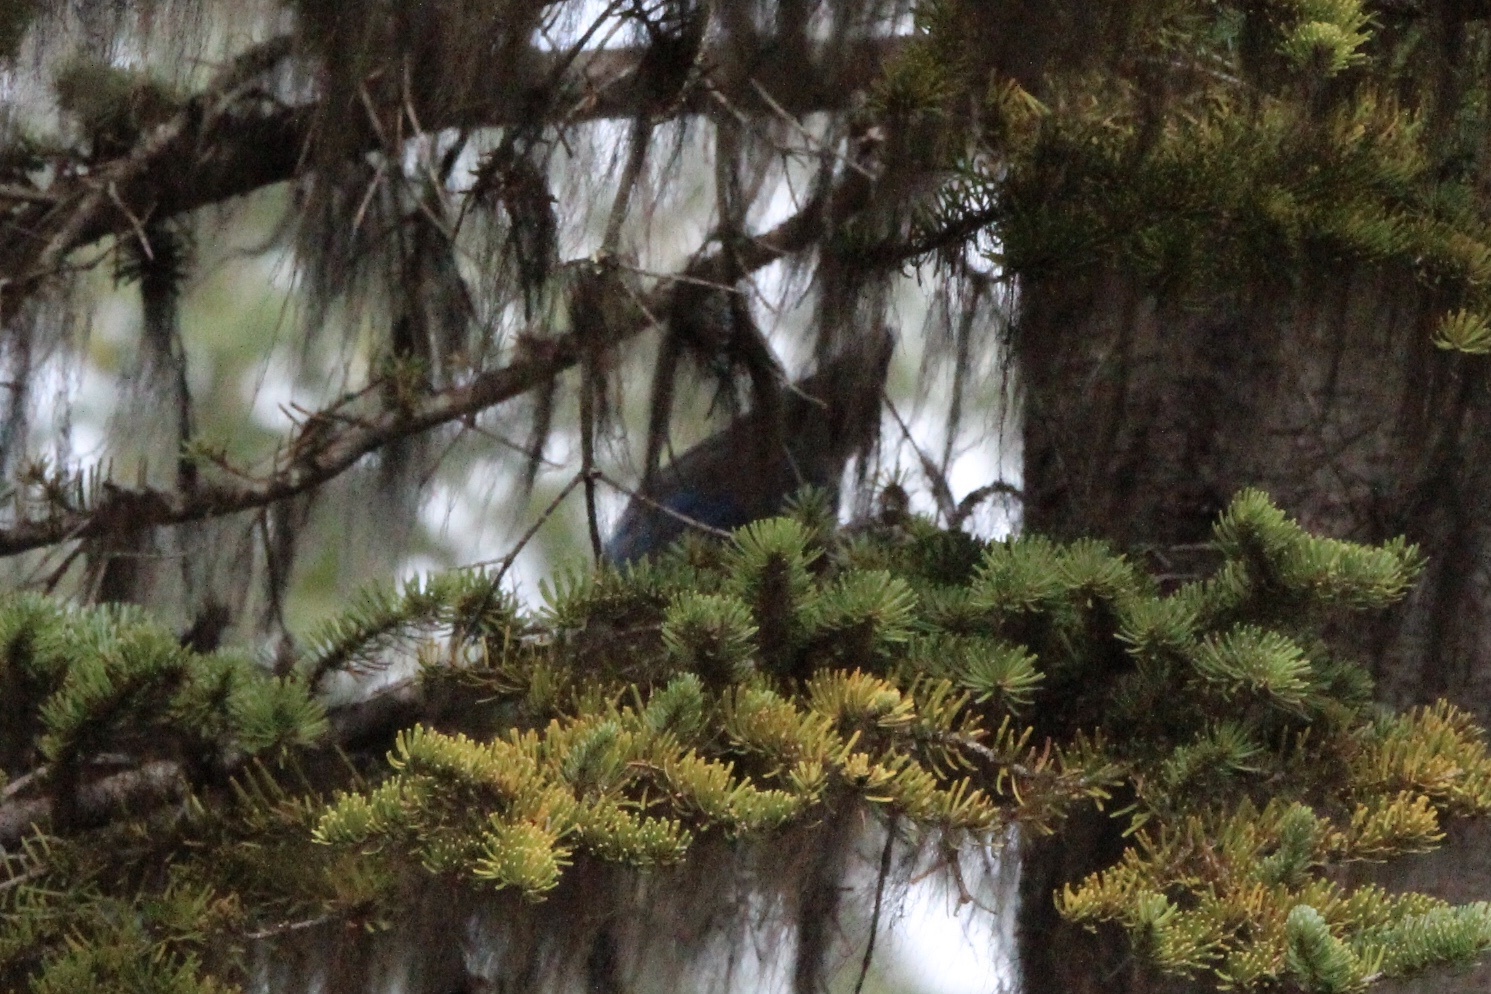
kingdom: Animalia
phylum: Chordata
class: Aves
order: Passeriformes
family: Corvidae
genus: Cyanocitta
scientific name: Cyanocitta stelleri
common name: Steller's jay
